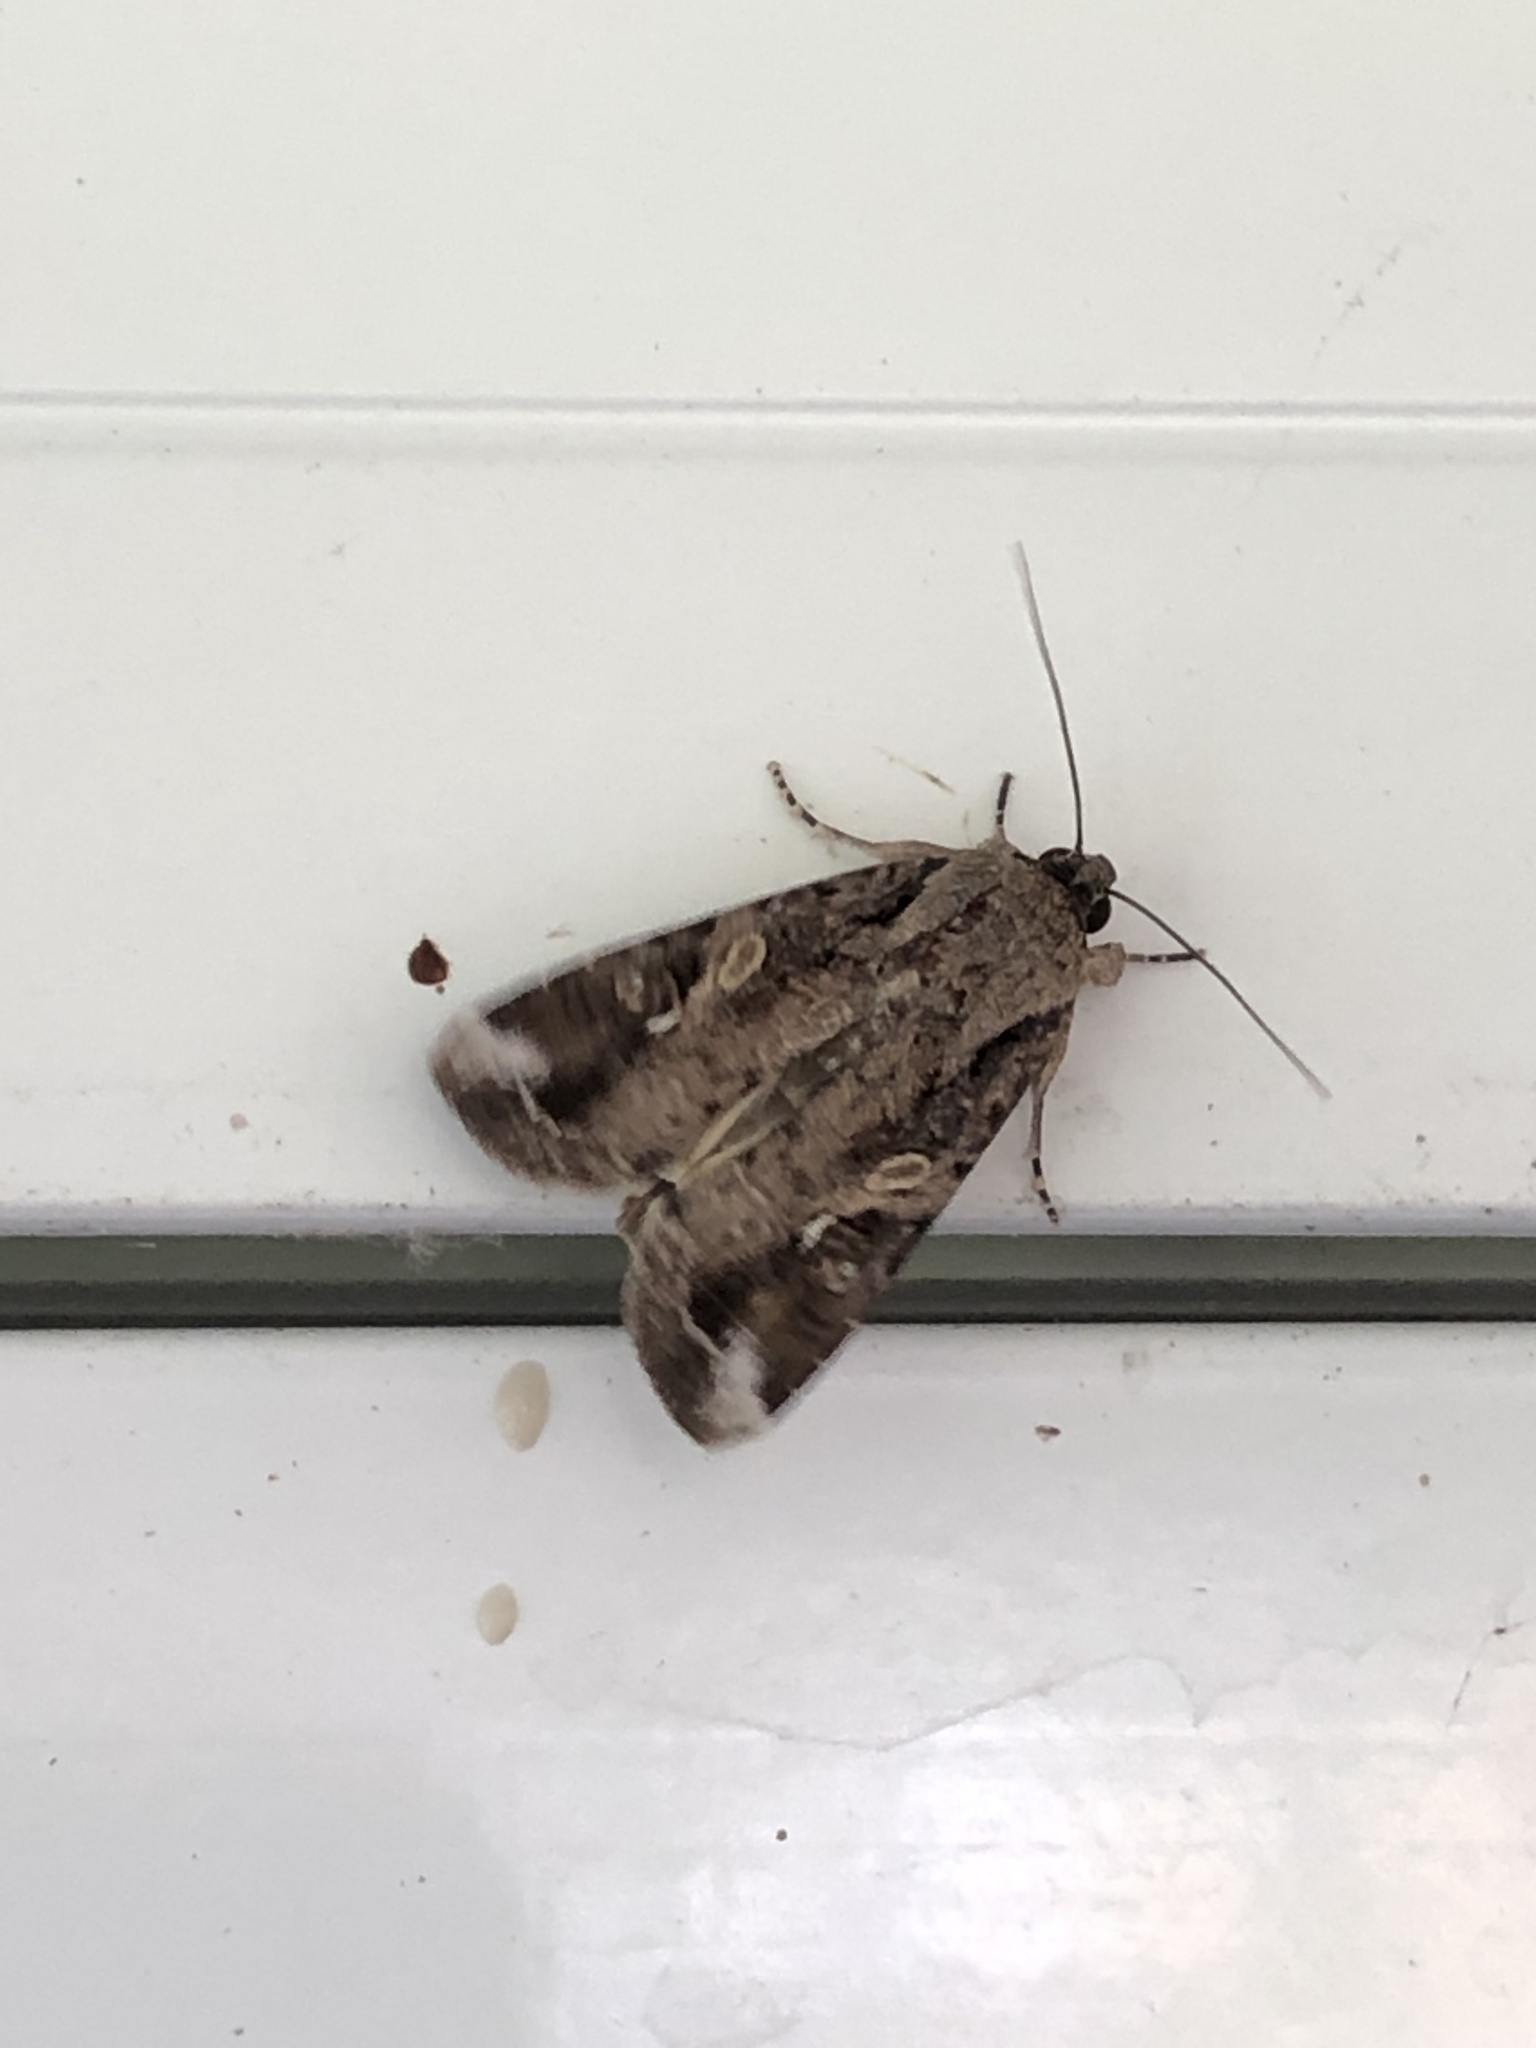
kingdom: Animalia
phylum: Arthropoda
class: Insecta
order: Lepidoptera
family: Noctuidae
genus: Spodoptera
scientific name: Spodoptera frugiperda
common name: Fall armyworm
